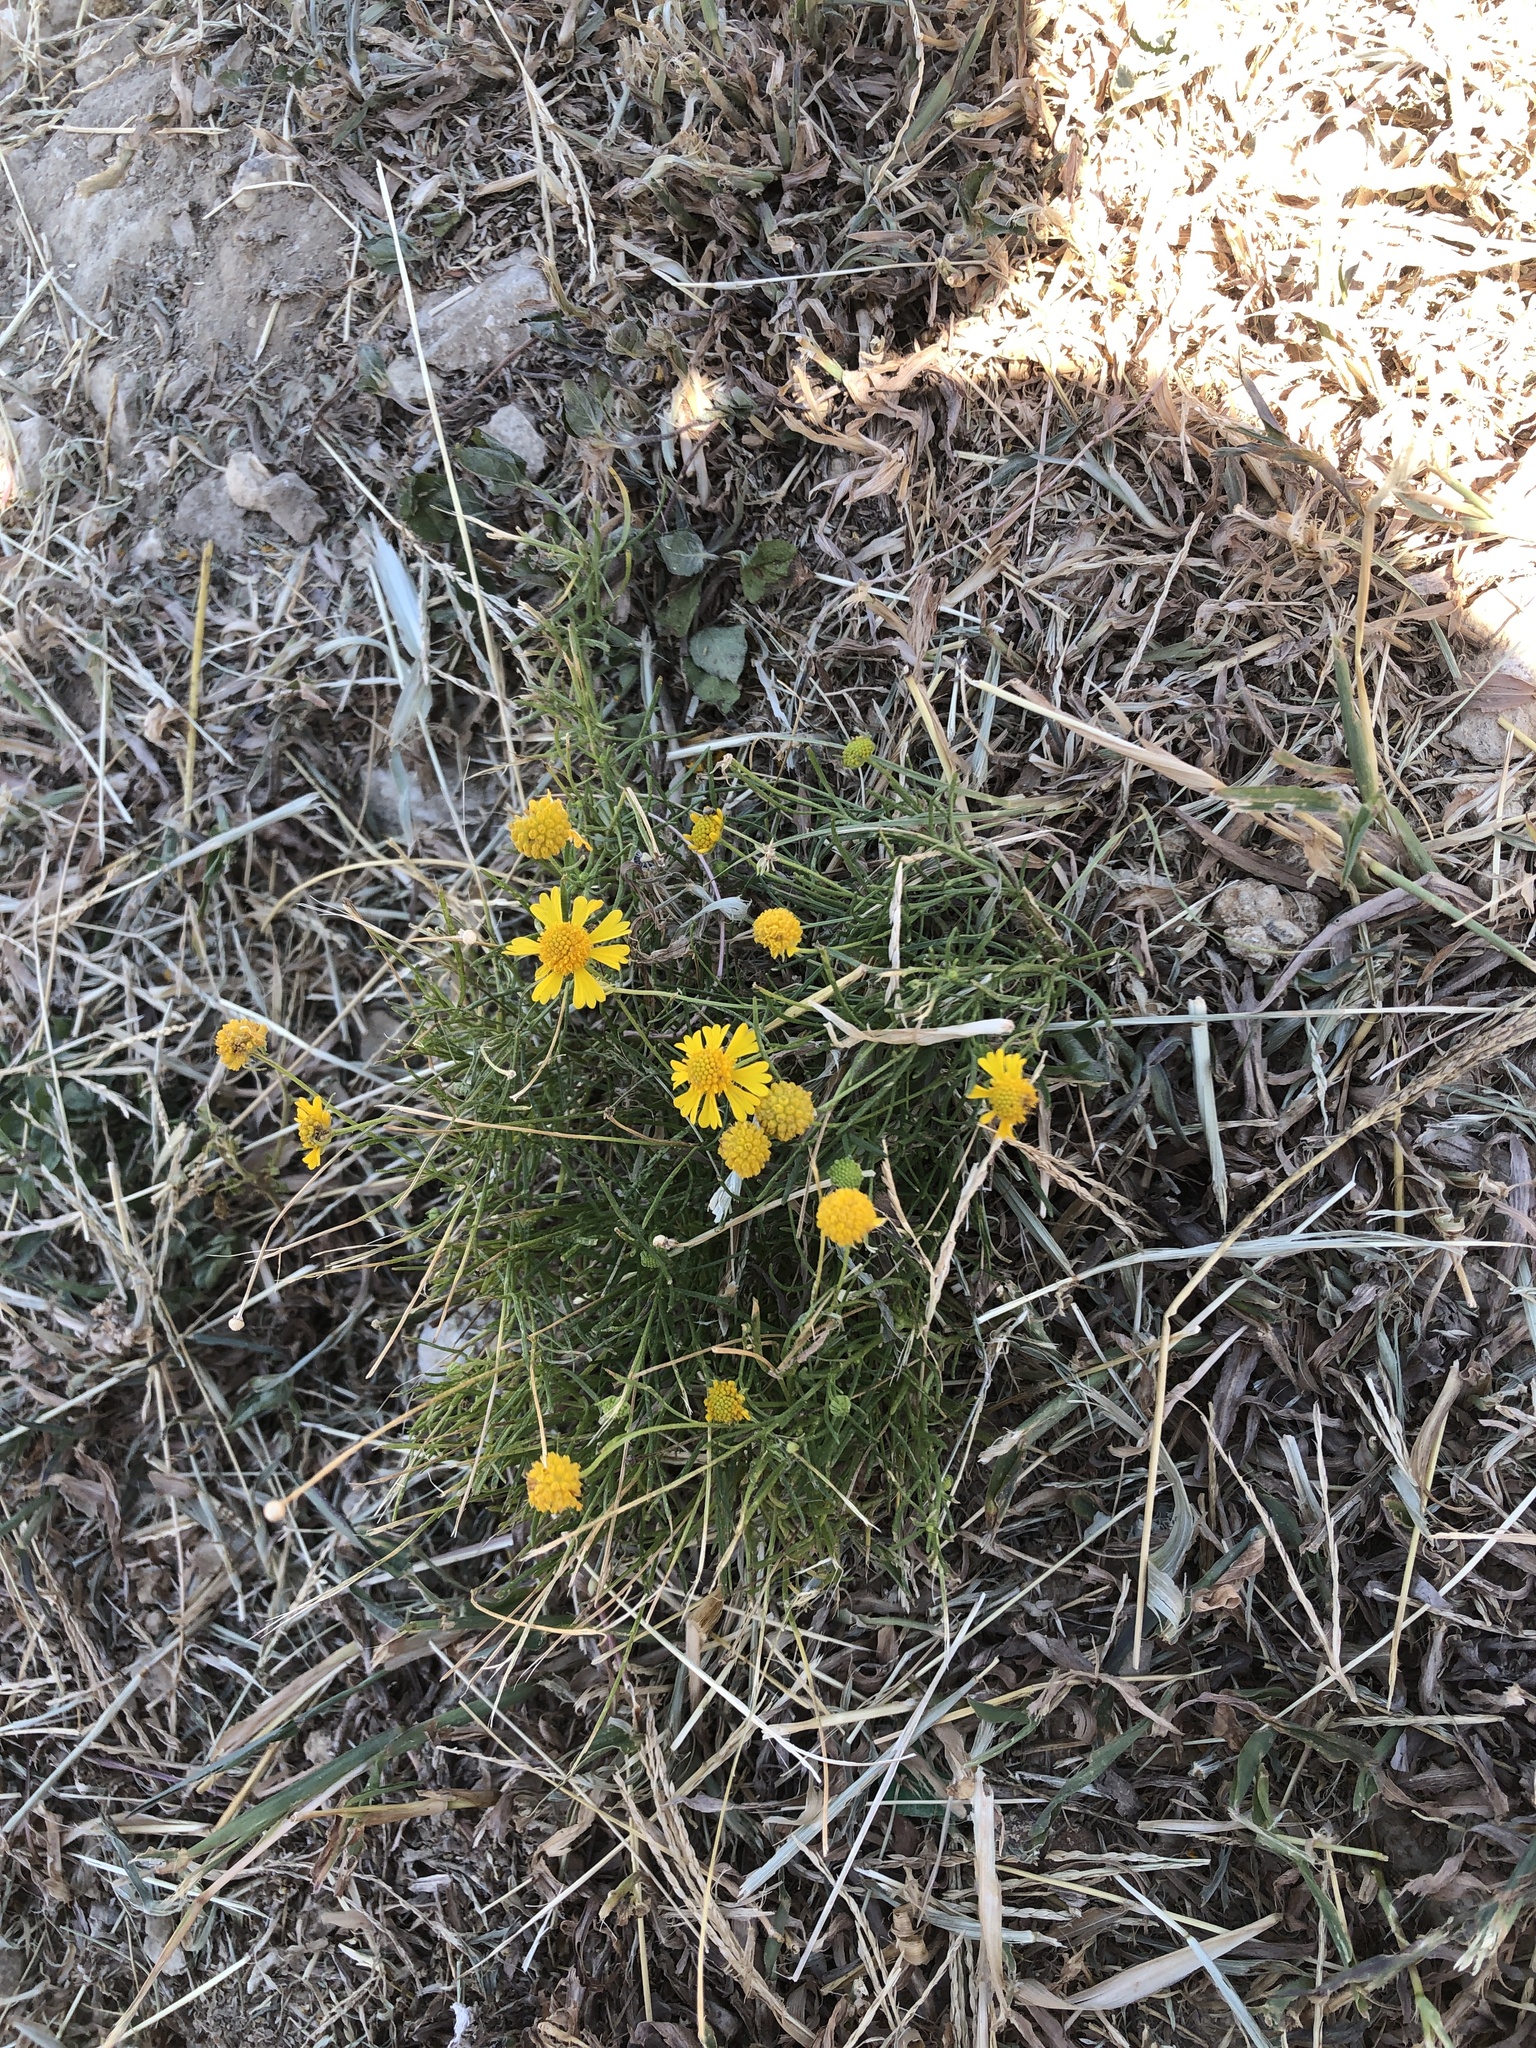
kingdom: Plantae
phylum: Tracheophyta
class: Magnoliopsida
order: Asterales
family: Asteraceae
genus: Helenium
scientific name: Helenium amarum
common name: Bitter sneezeweed
